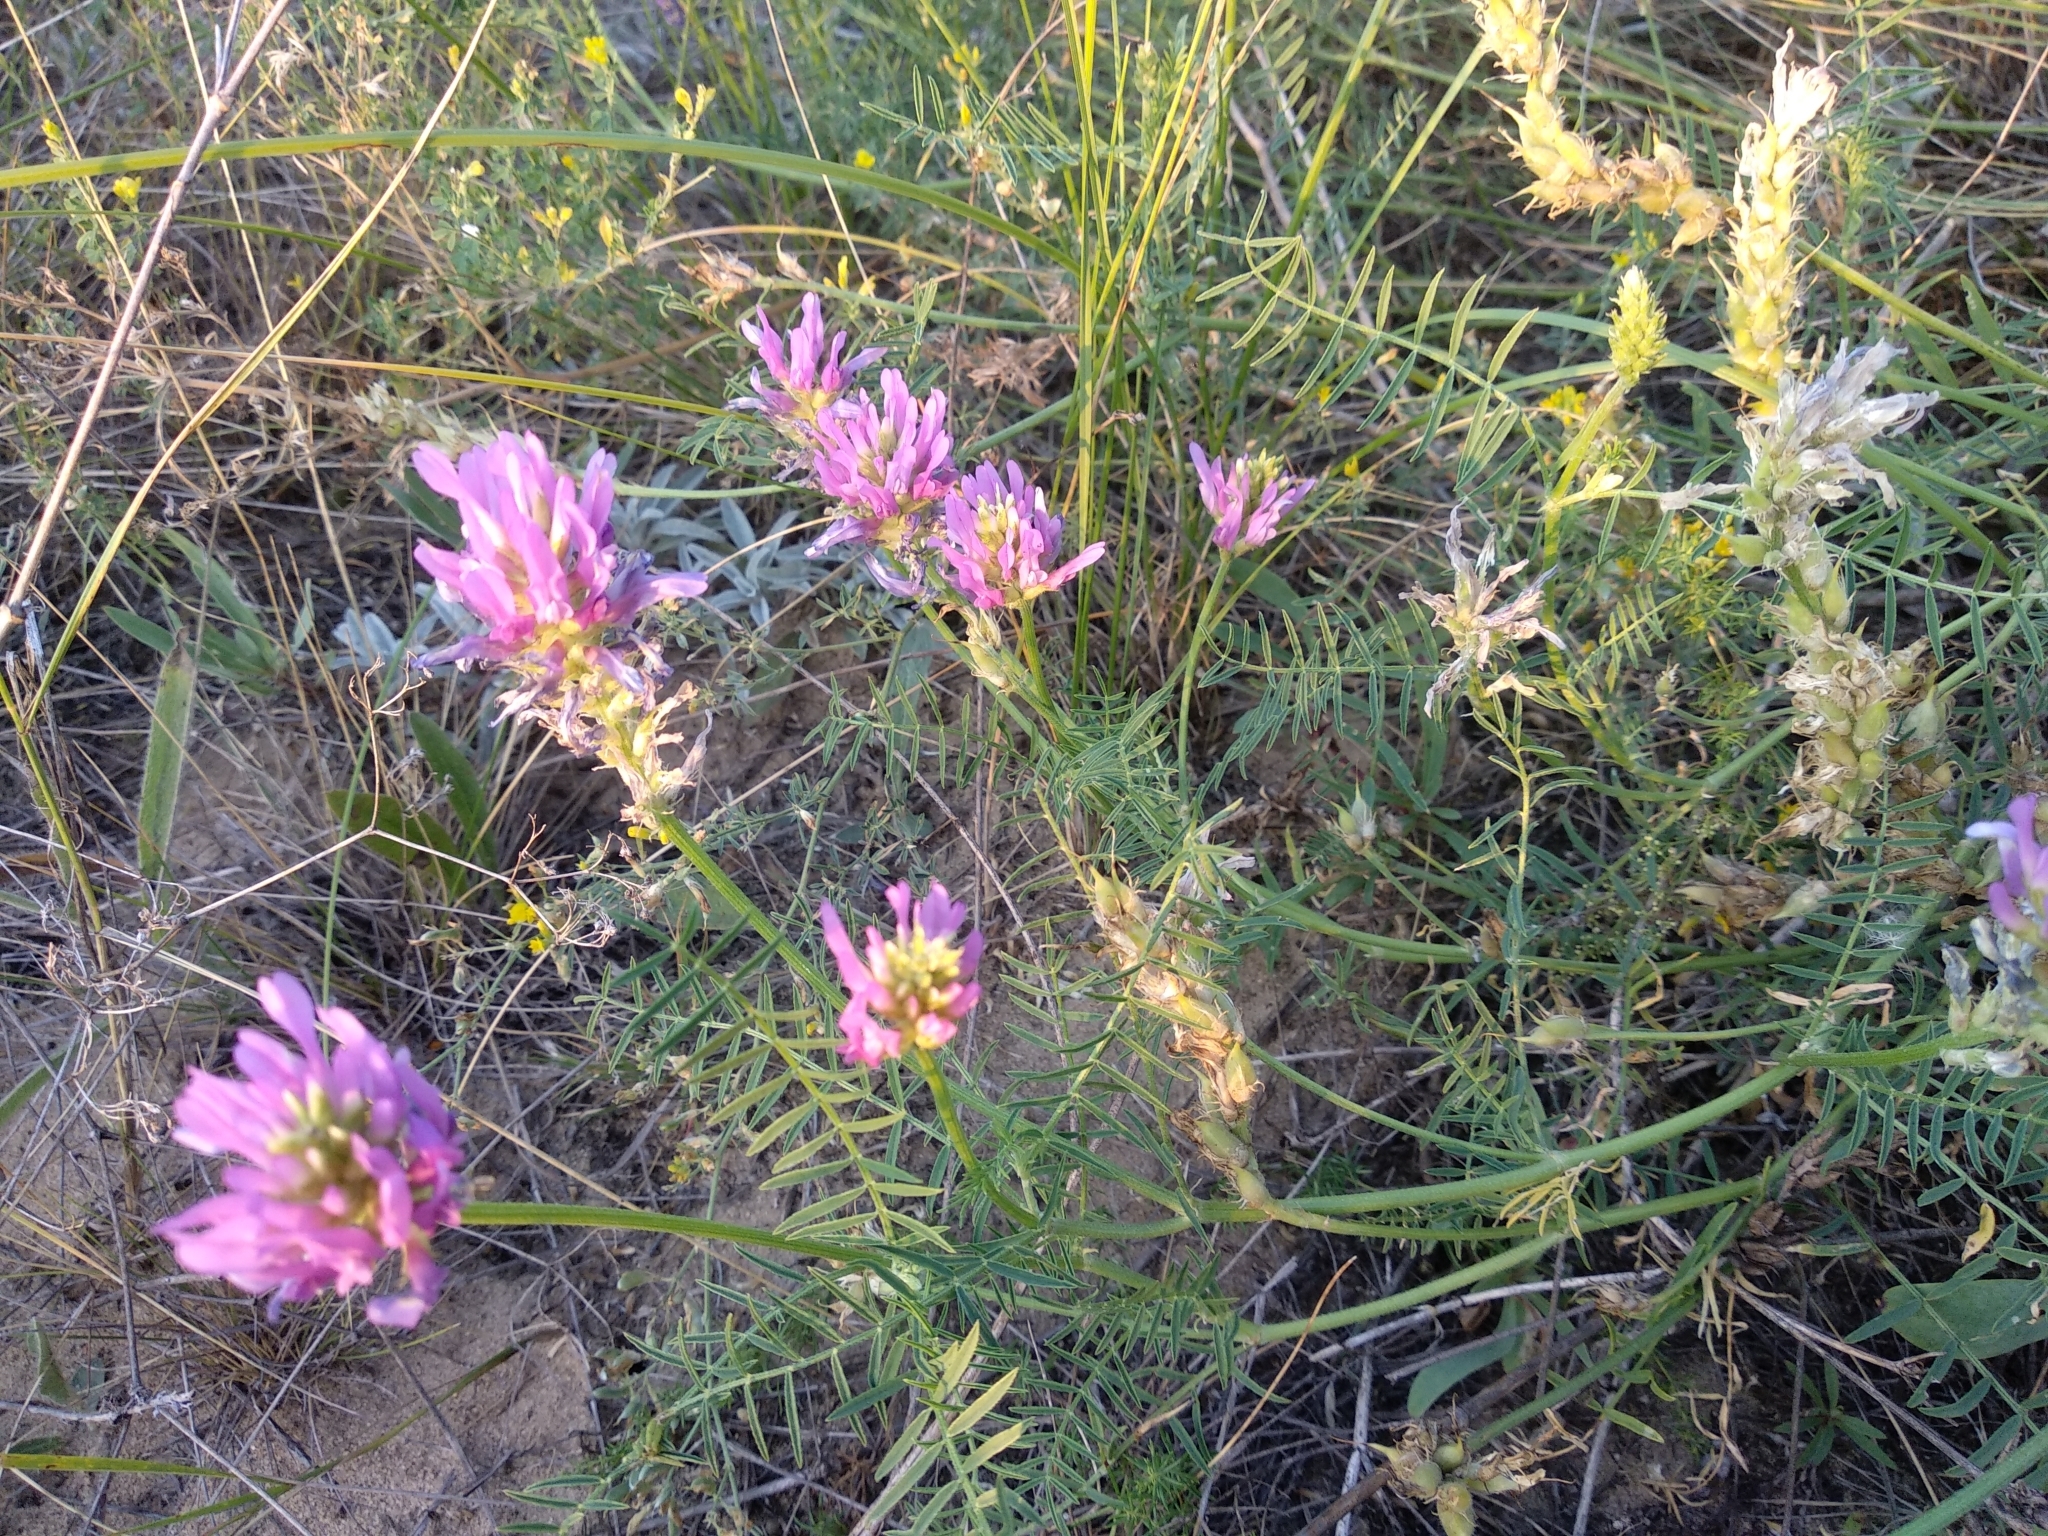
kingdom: Plantae
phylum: Tracheophyta
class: Magnoliopsida
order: Fabales
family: Fabaceae
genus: Astragalus
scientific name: Astragalus onobrychis
